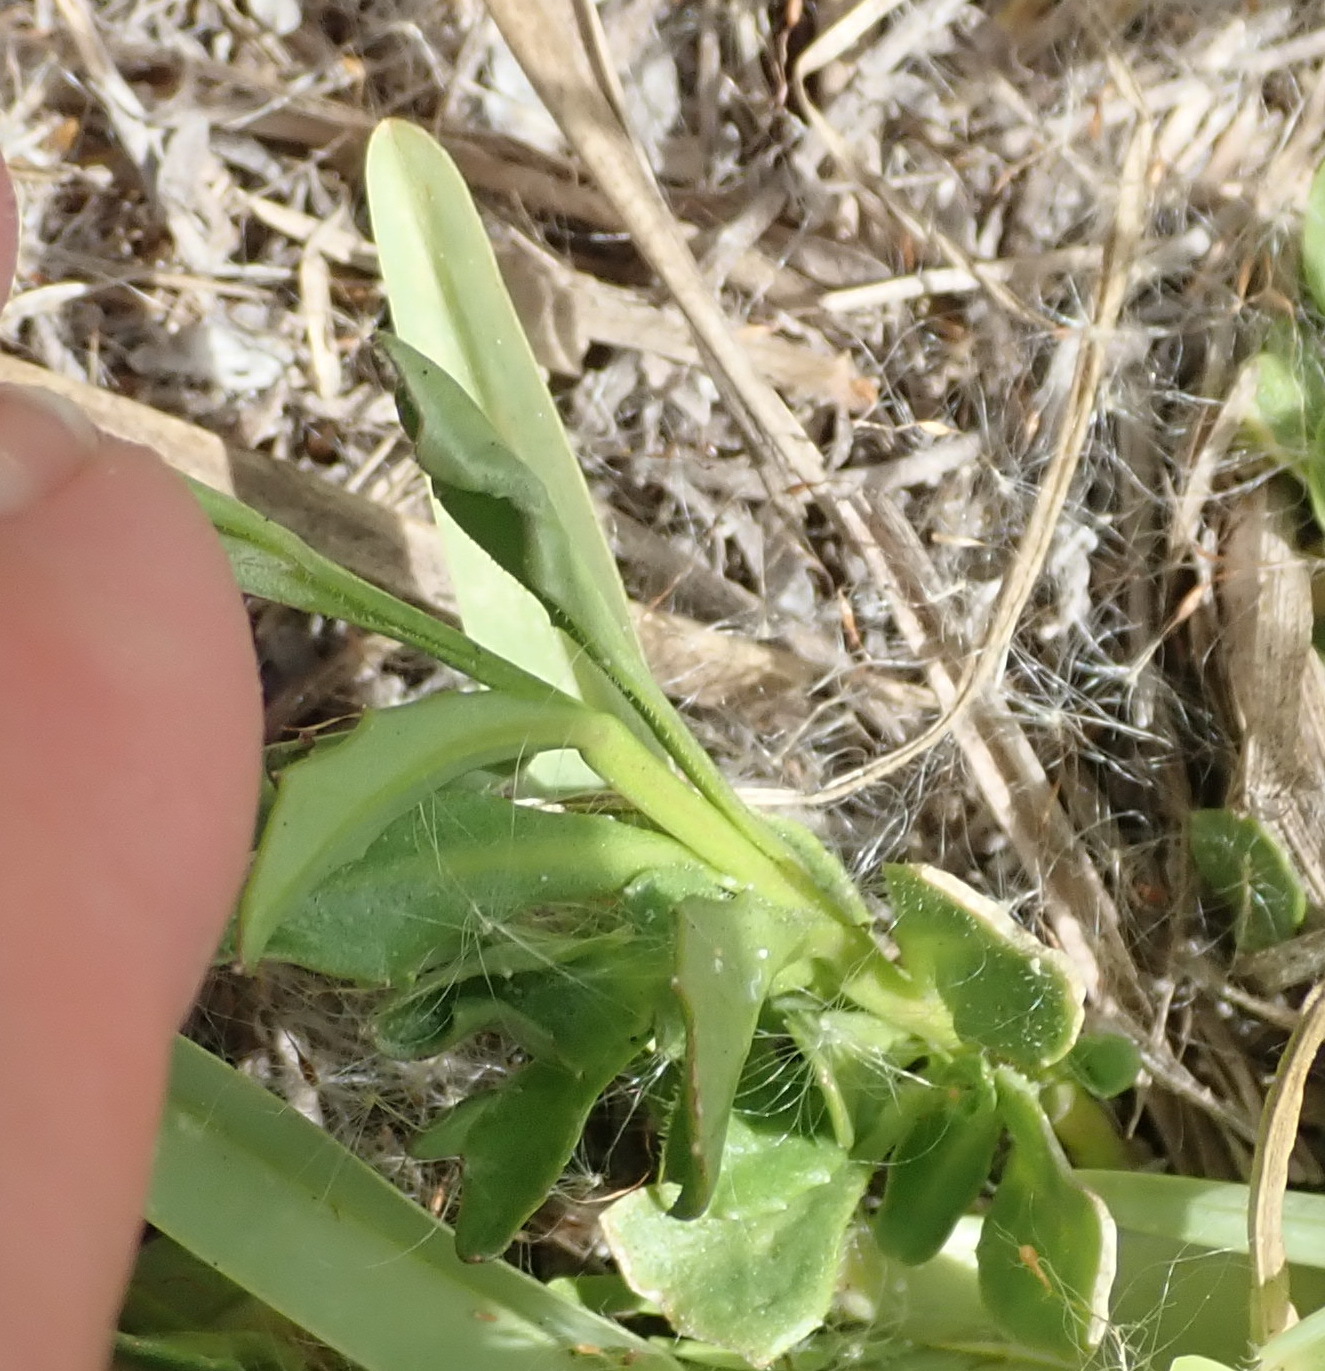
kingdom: Plantae
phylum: Tracheophyta
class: Magnoliopsida
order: Asterales
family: Campanulaceae
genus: Lobelia
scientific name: Lobelia anceps
